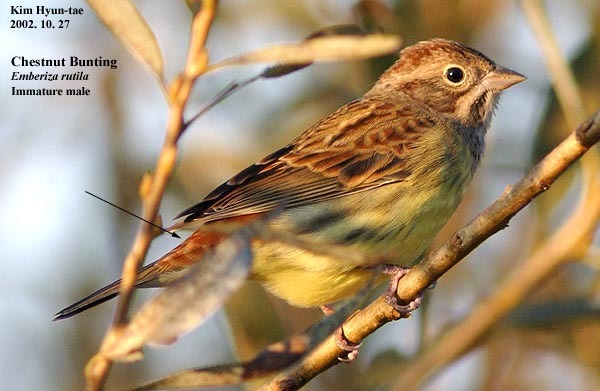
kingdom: Animalia
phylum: Chordata
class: Aves
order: Passeriformes
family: Emberizidae
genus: Emberiza
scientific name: Emberiza rutila
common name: Chestnut bunting
